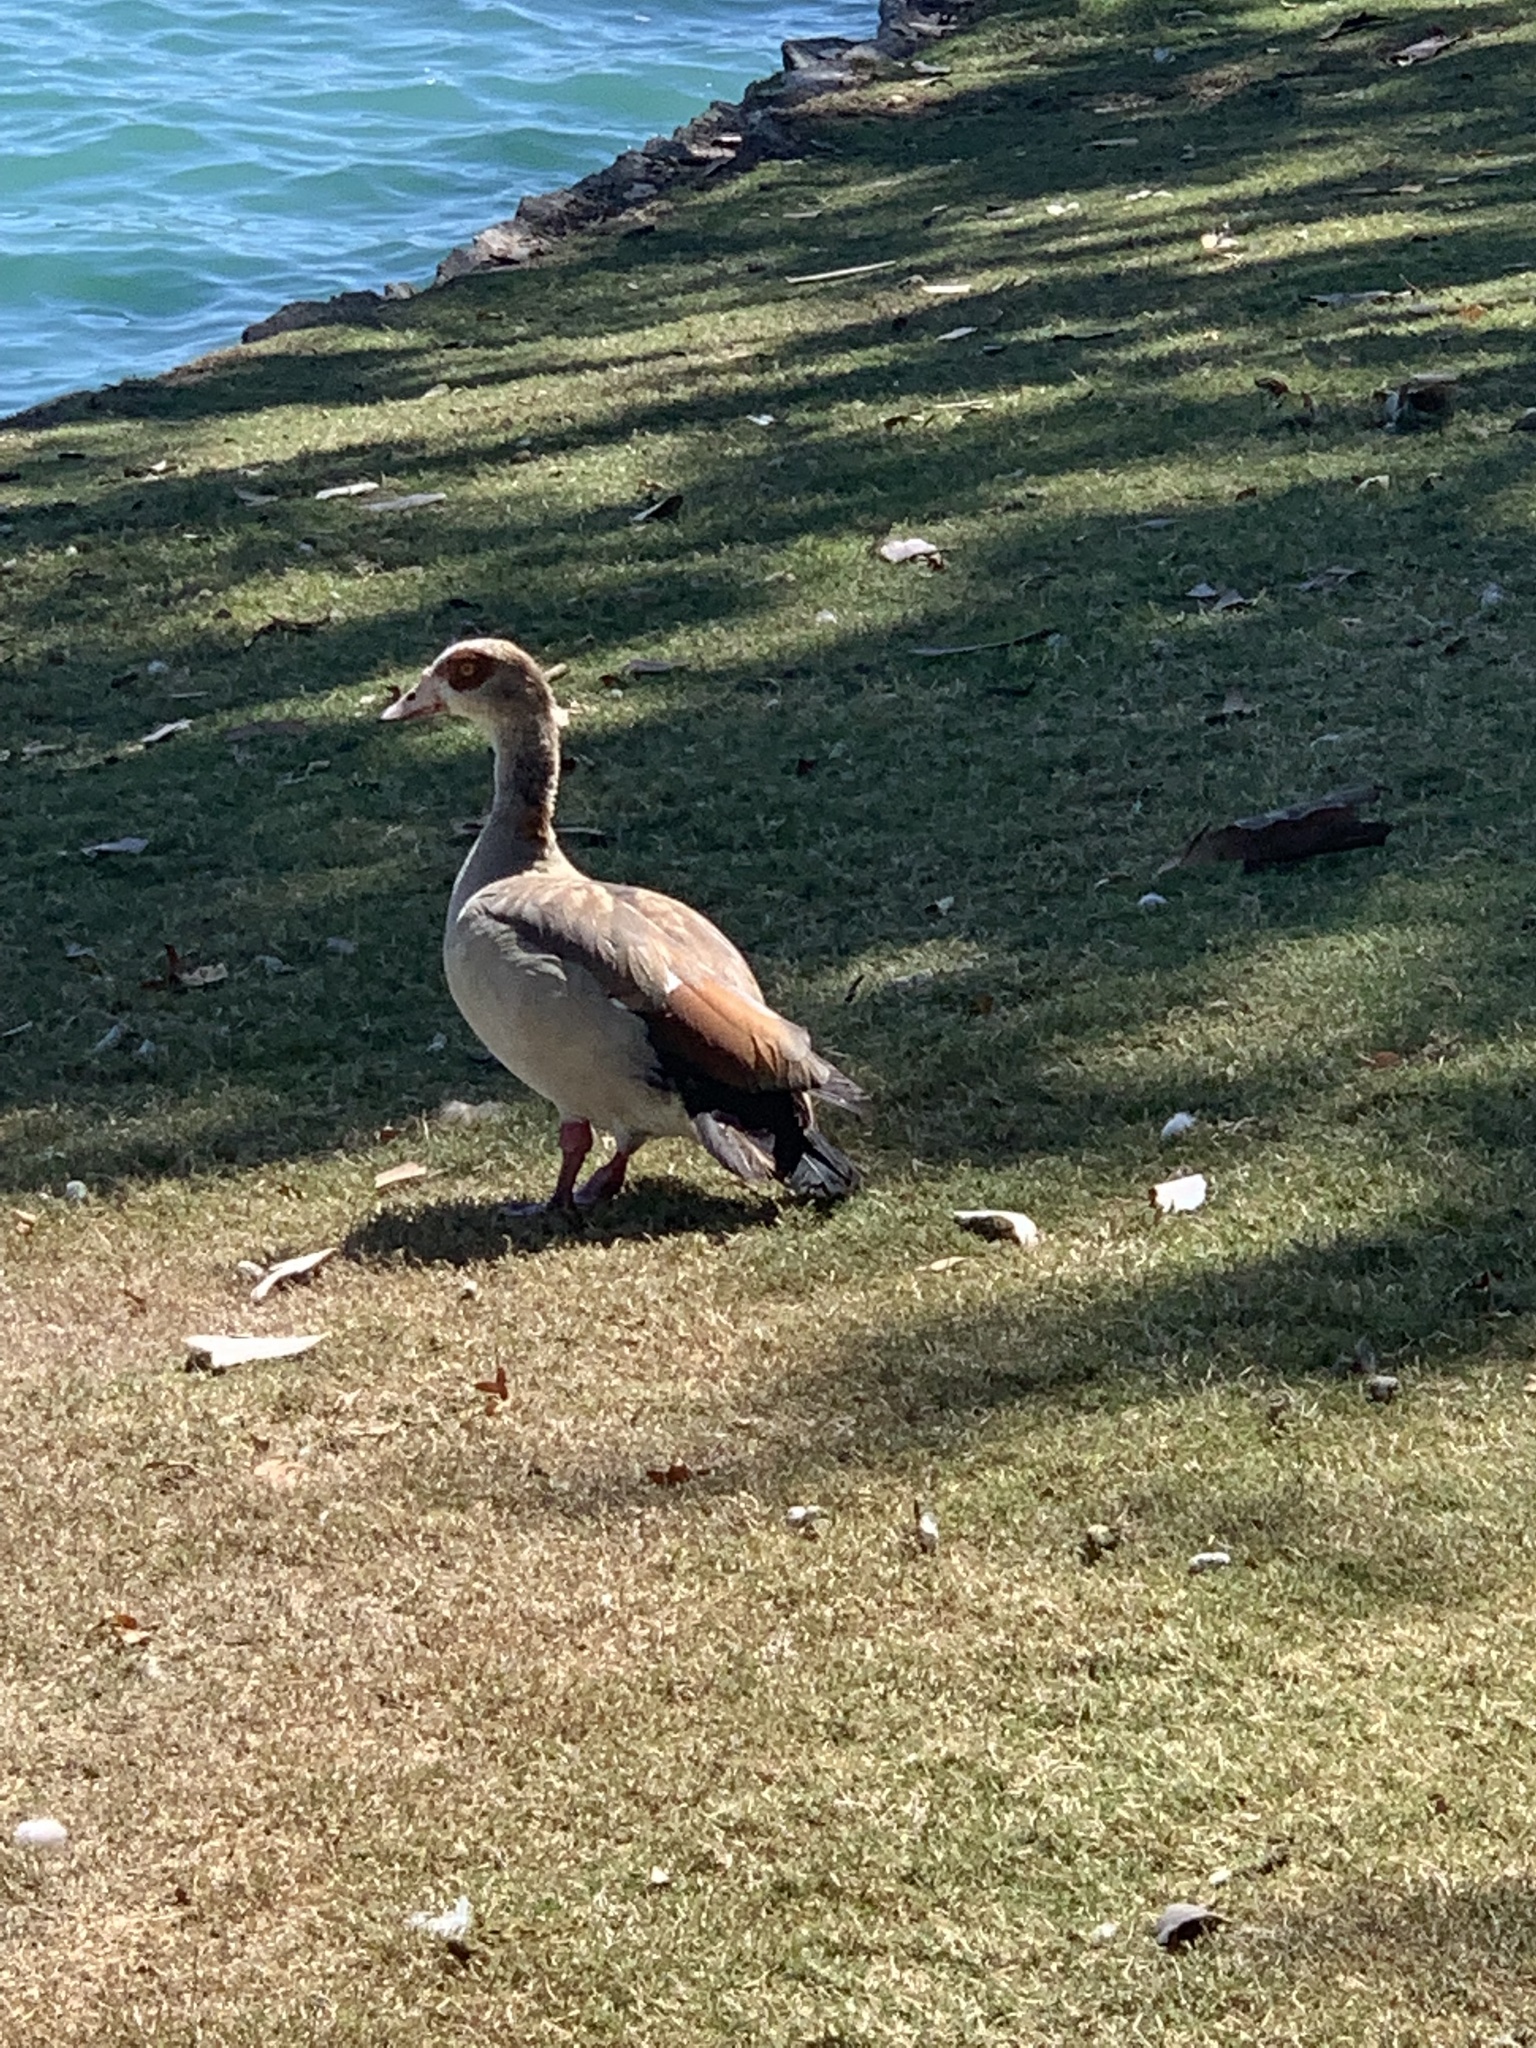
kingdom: Animalia
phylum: Chordata
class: Aves
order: Anseriformes
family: Anatidae
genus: Alopochen
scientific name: Alopochen aegyptiaca
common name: Egyptian goose
